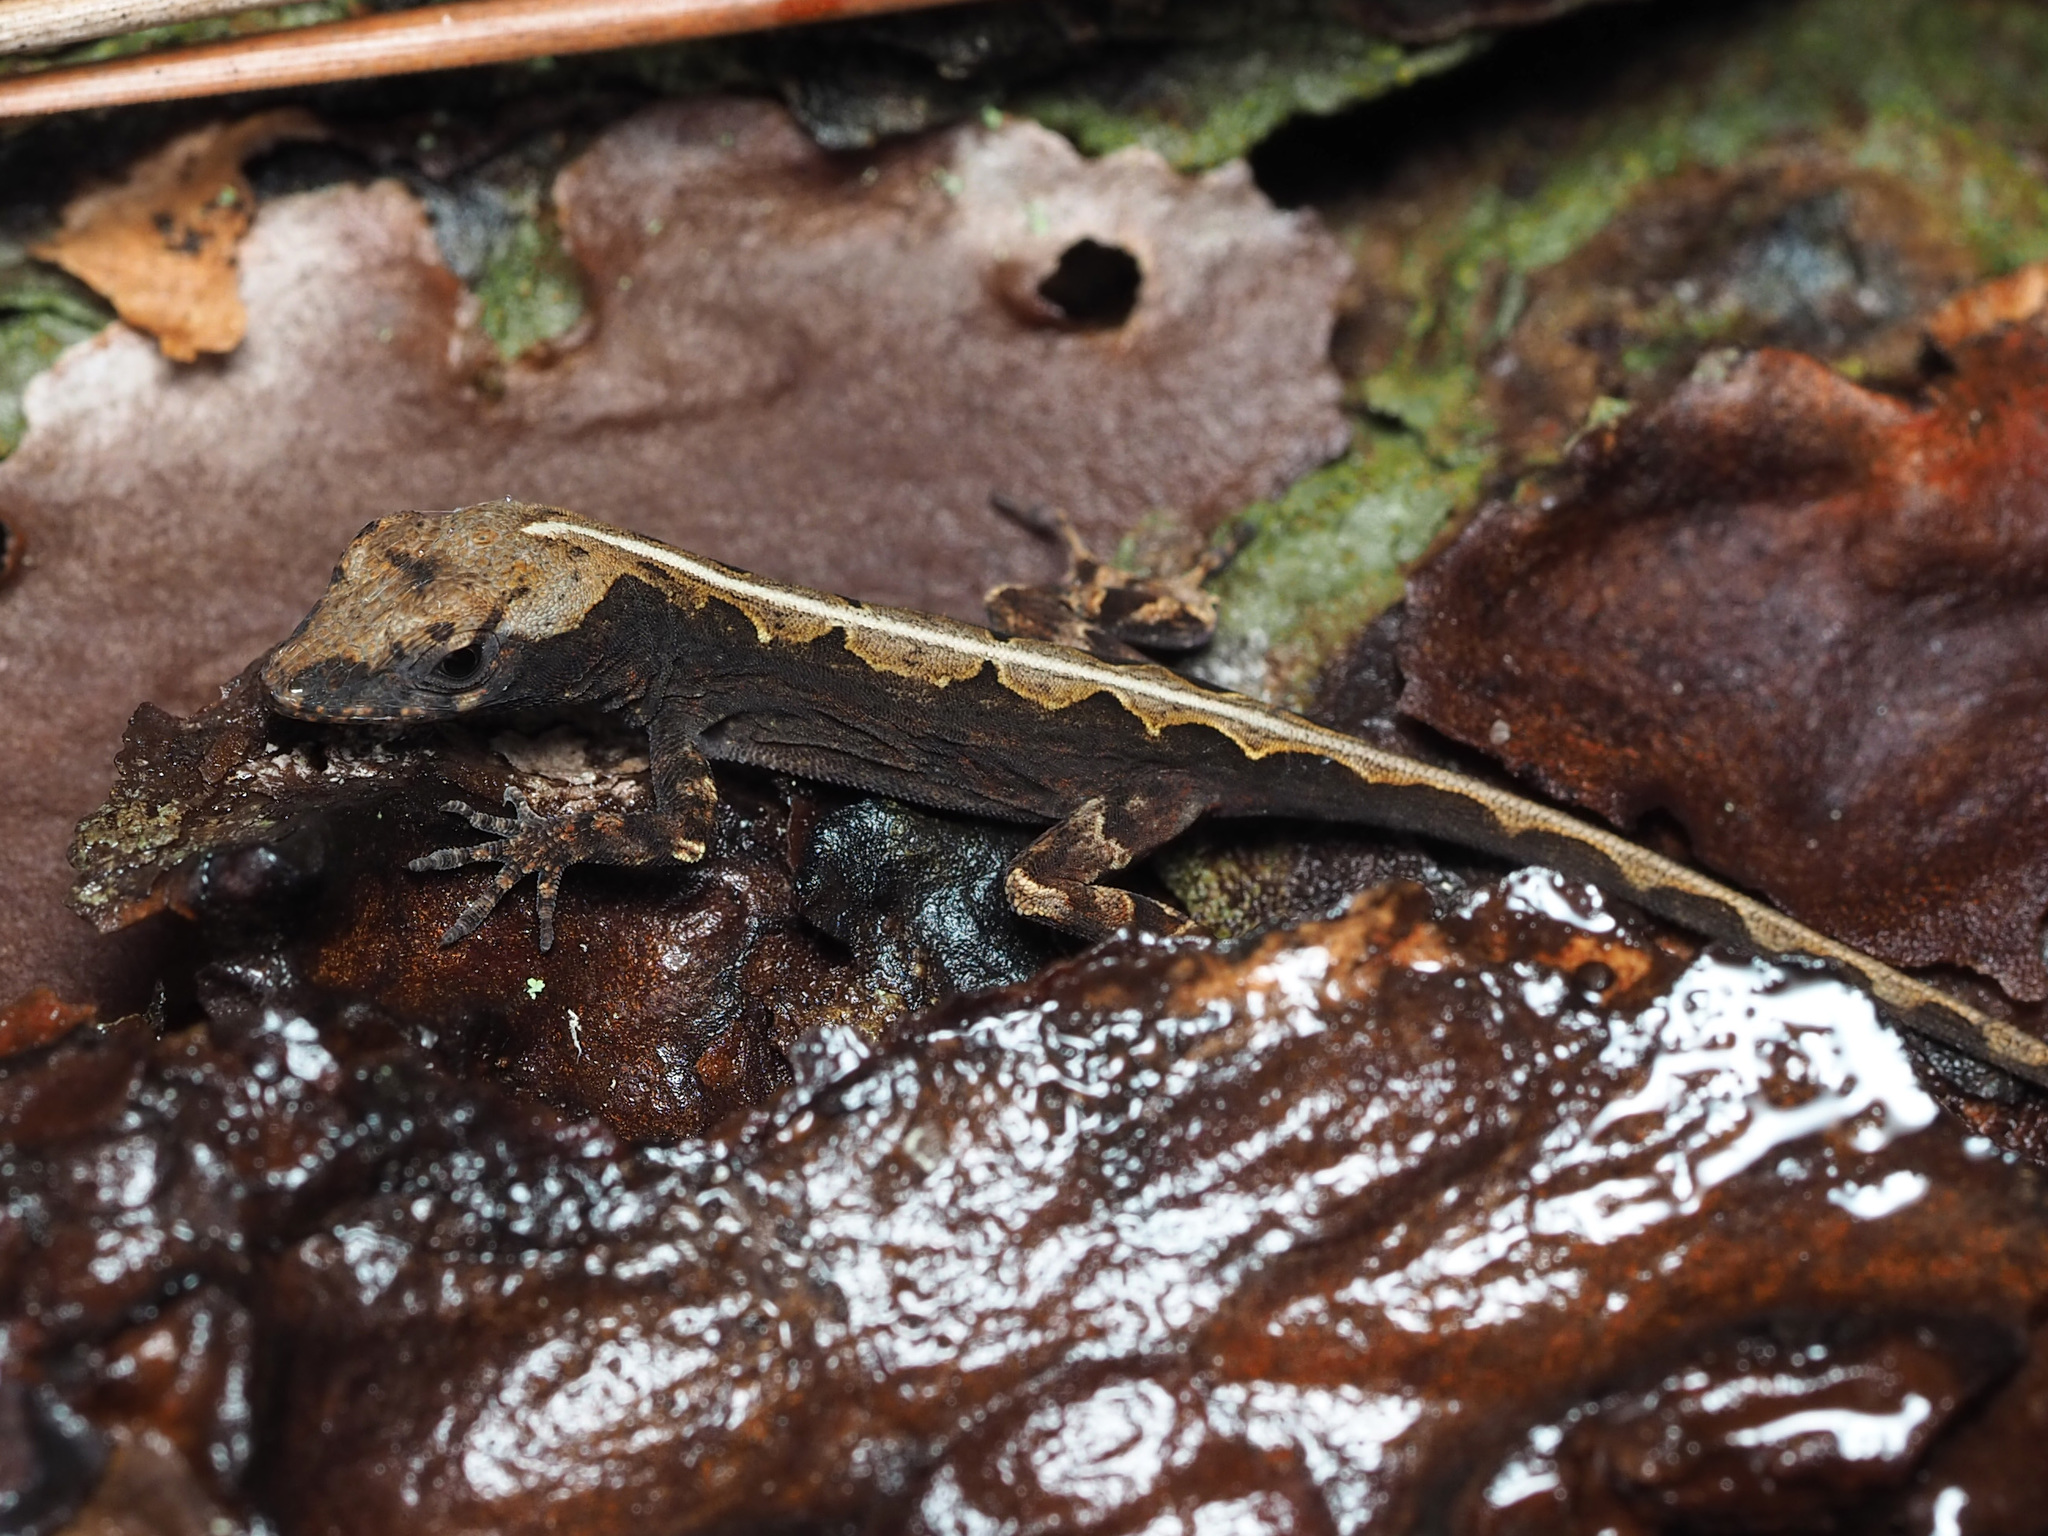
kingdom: Animalia
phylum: Chordata
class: Squamata
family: Dactyloidae
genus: Anolis
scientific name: Anolis sagrei
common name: Brown anole
